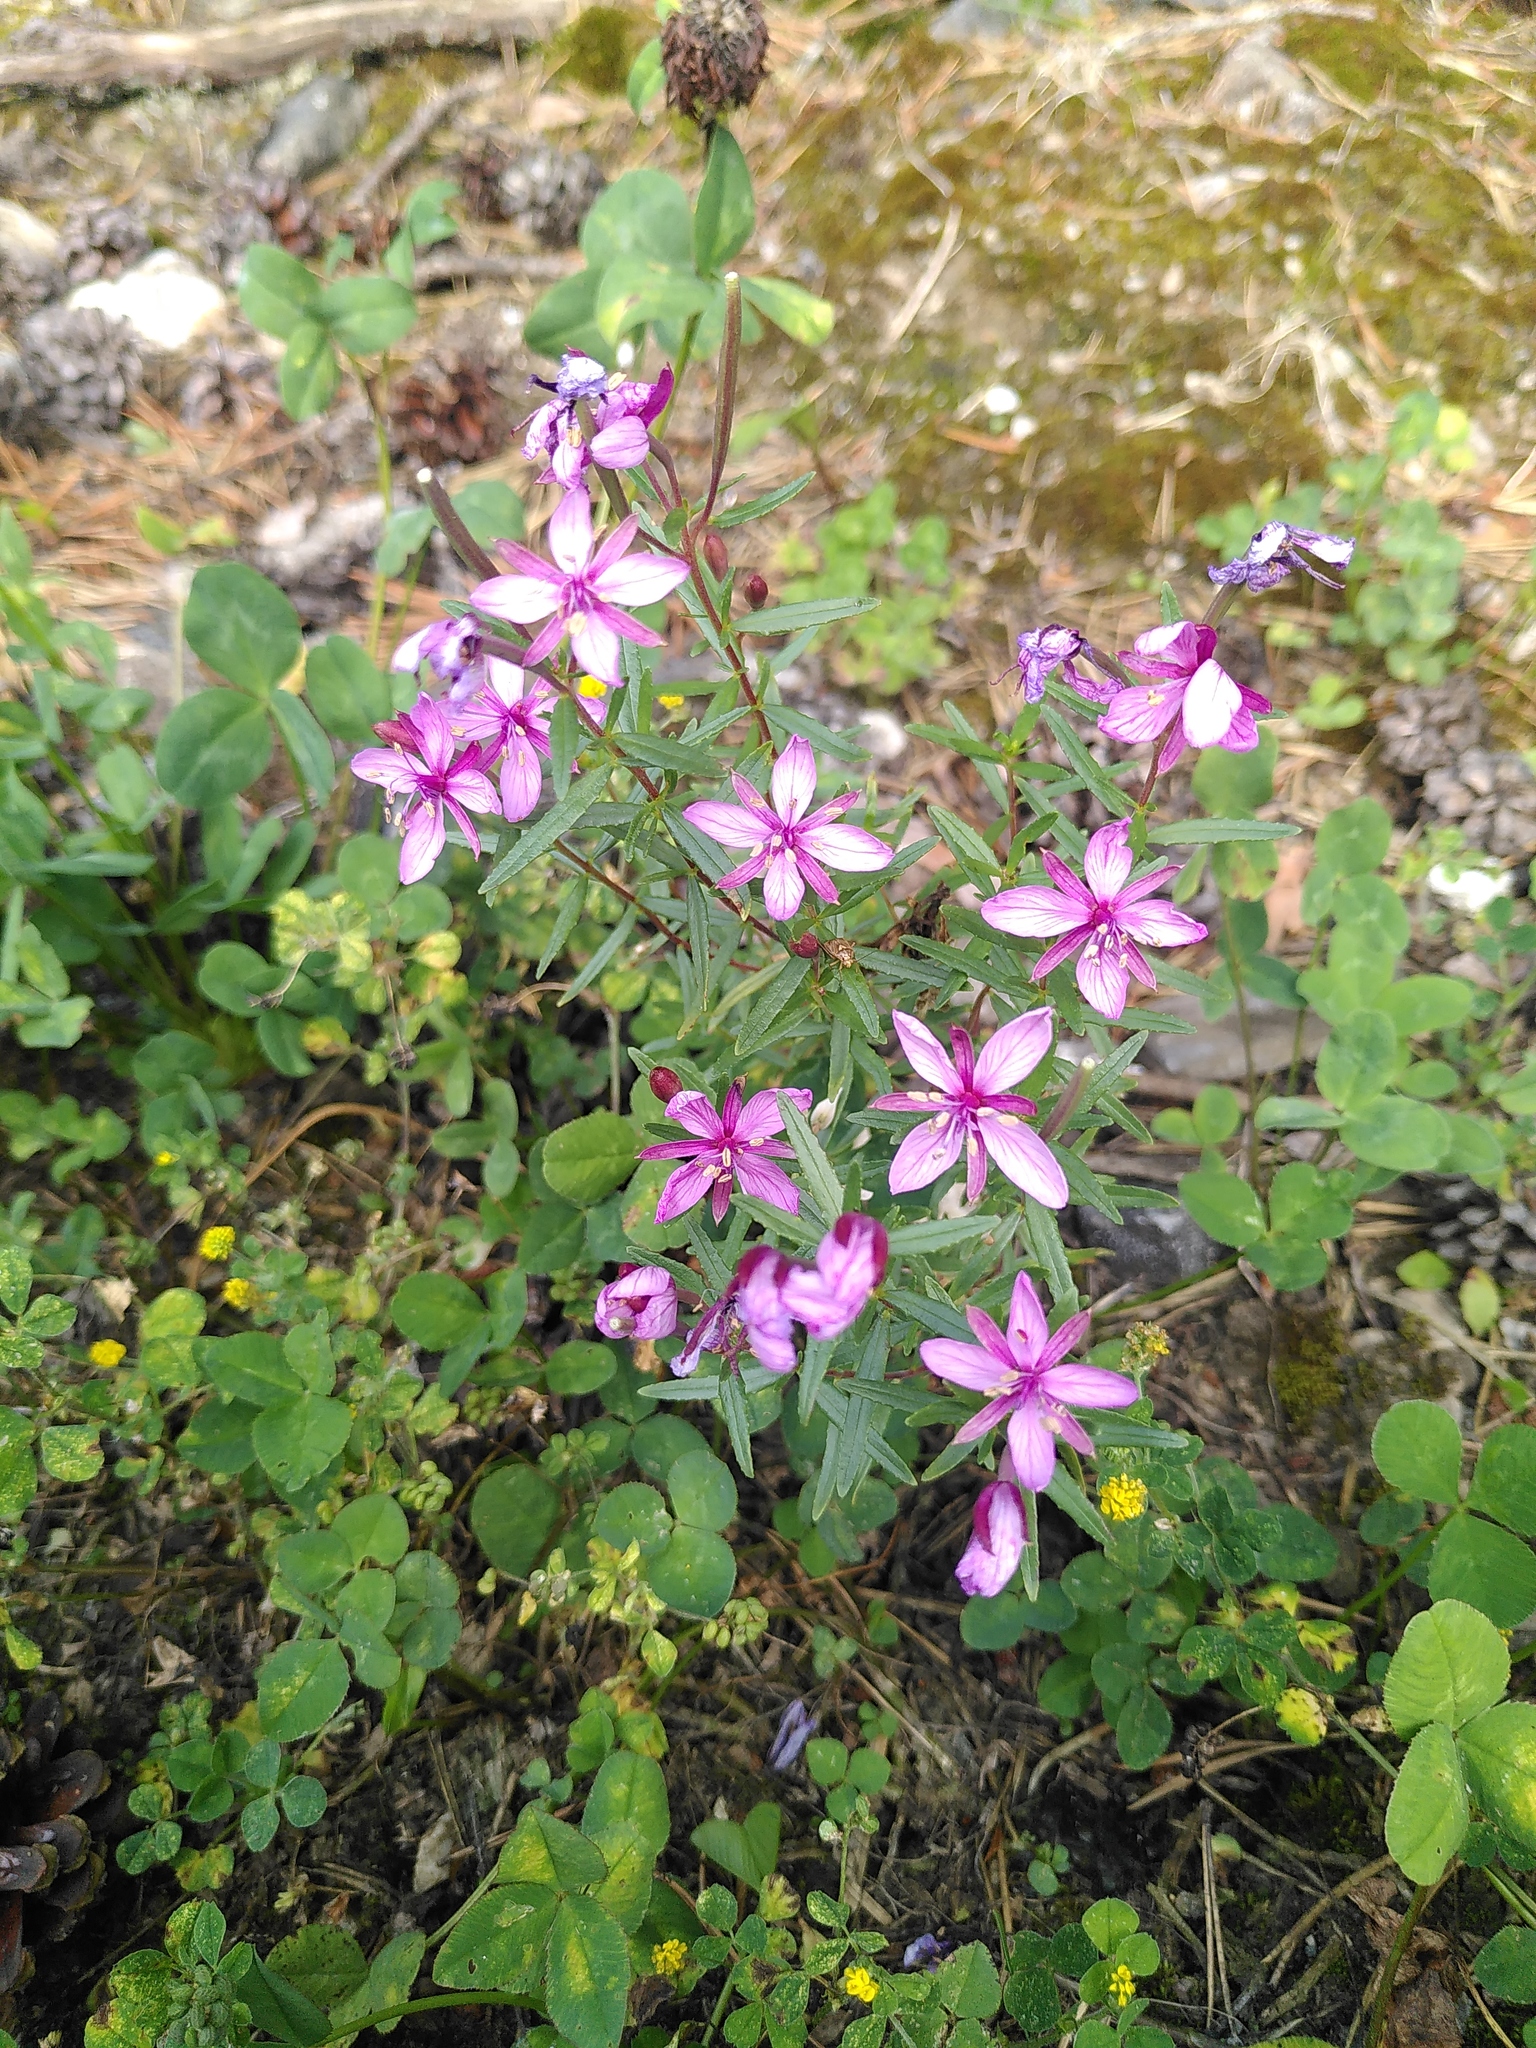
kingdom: Plantae
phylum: Tracheophyta
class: Magnoliopsida
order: Myrtales
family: Onagraceae
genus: Chamaenerion
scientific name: Chamaenerion fleischeri
